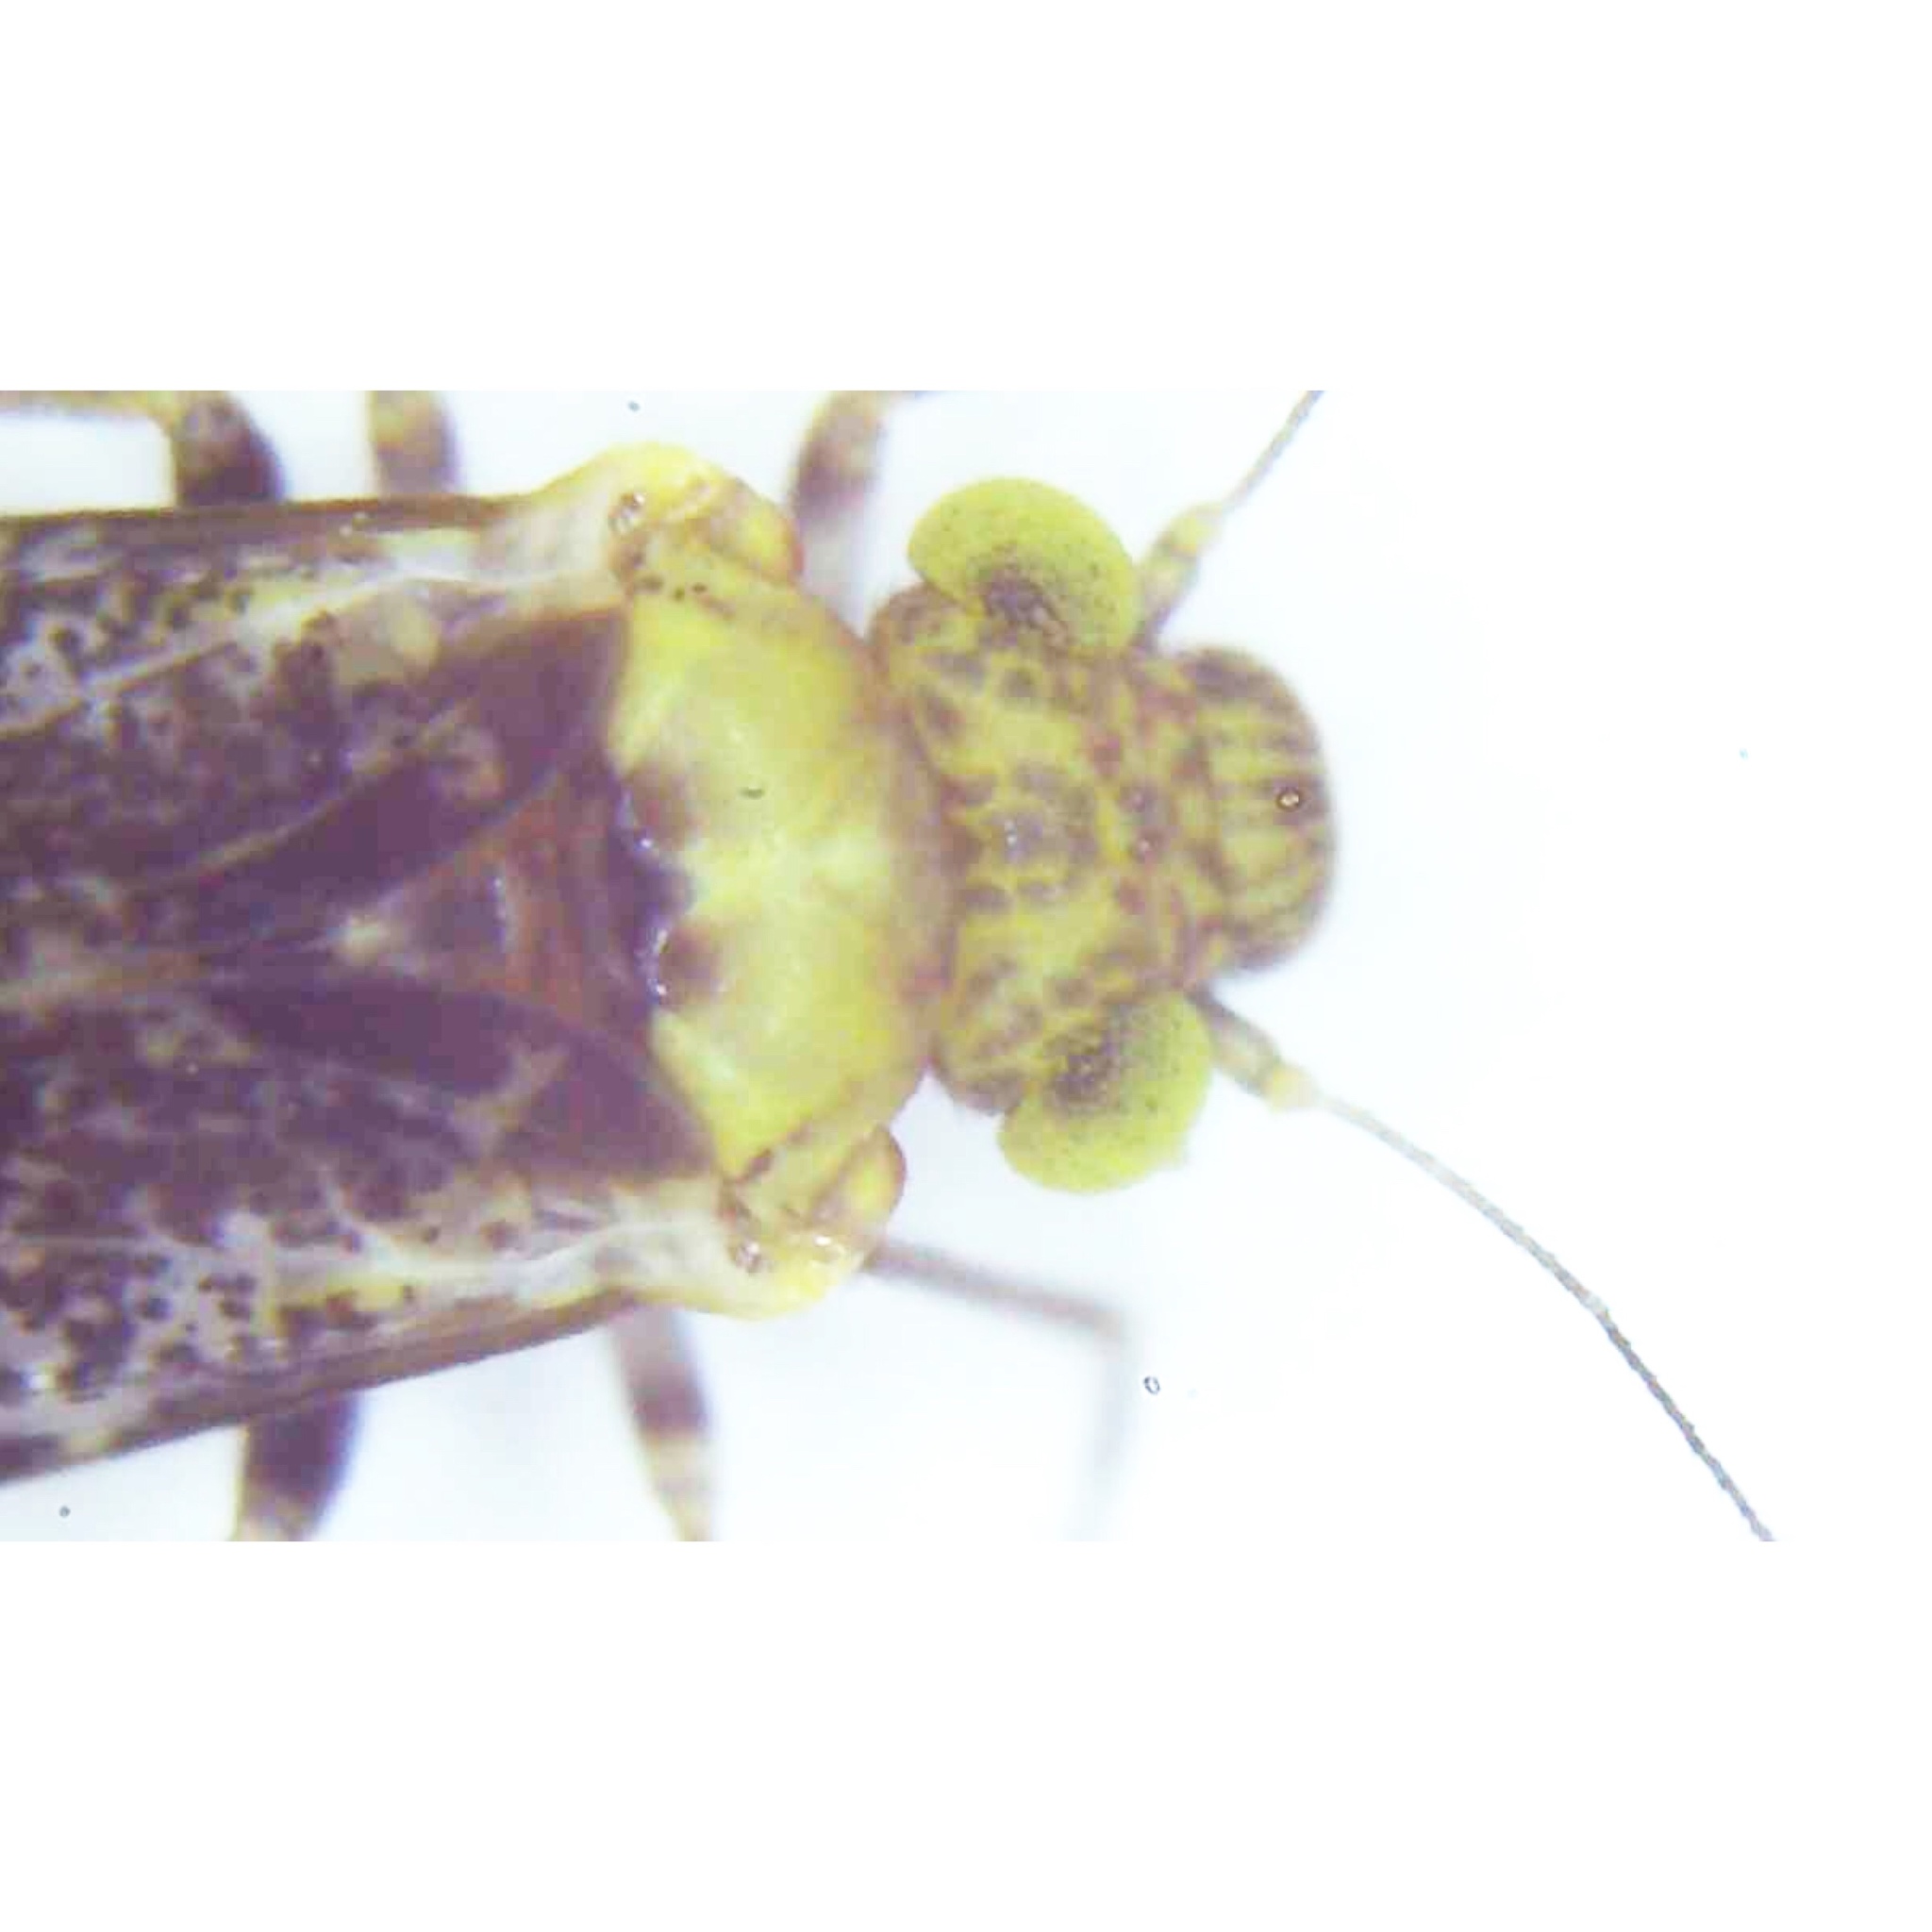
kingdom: Animalia
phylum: Arthropoda
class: Insecta
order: Psocodea
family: Psocidae
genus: Trichadenotecnum
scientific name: Trichadenotecnum alexanderae
